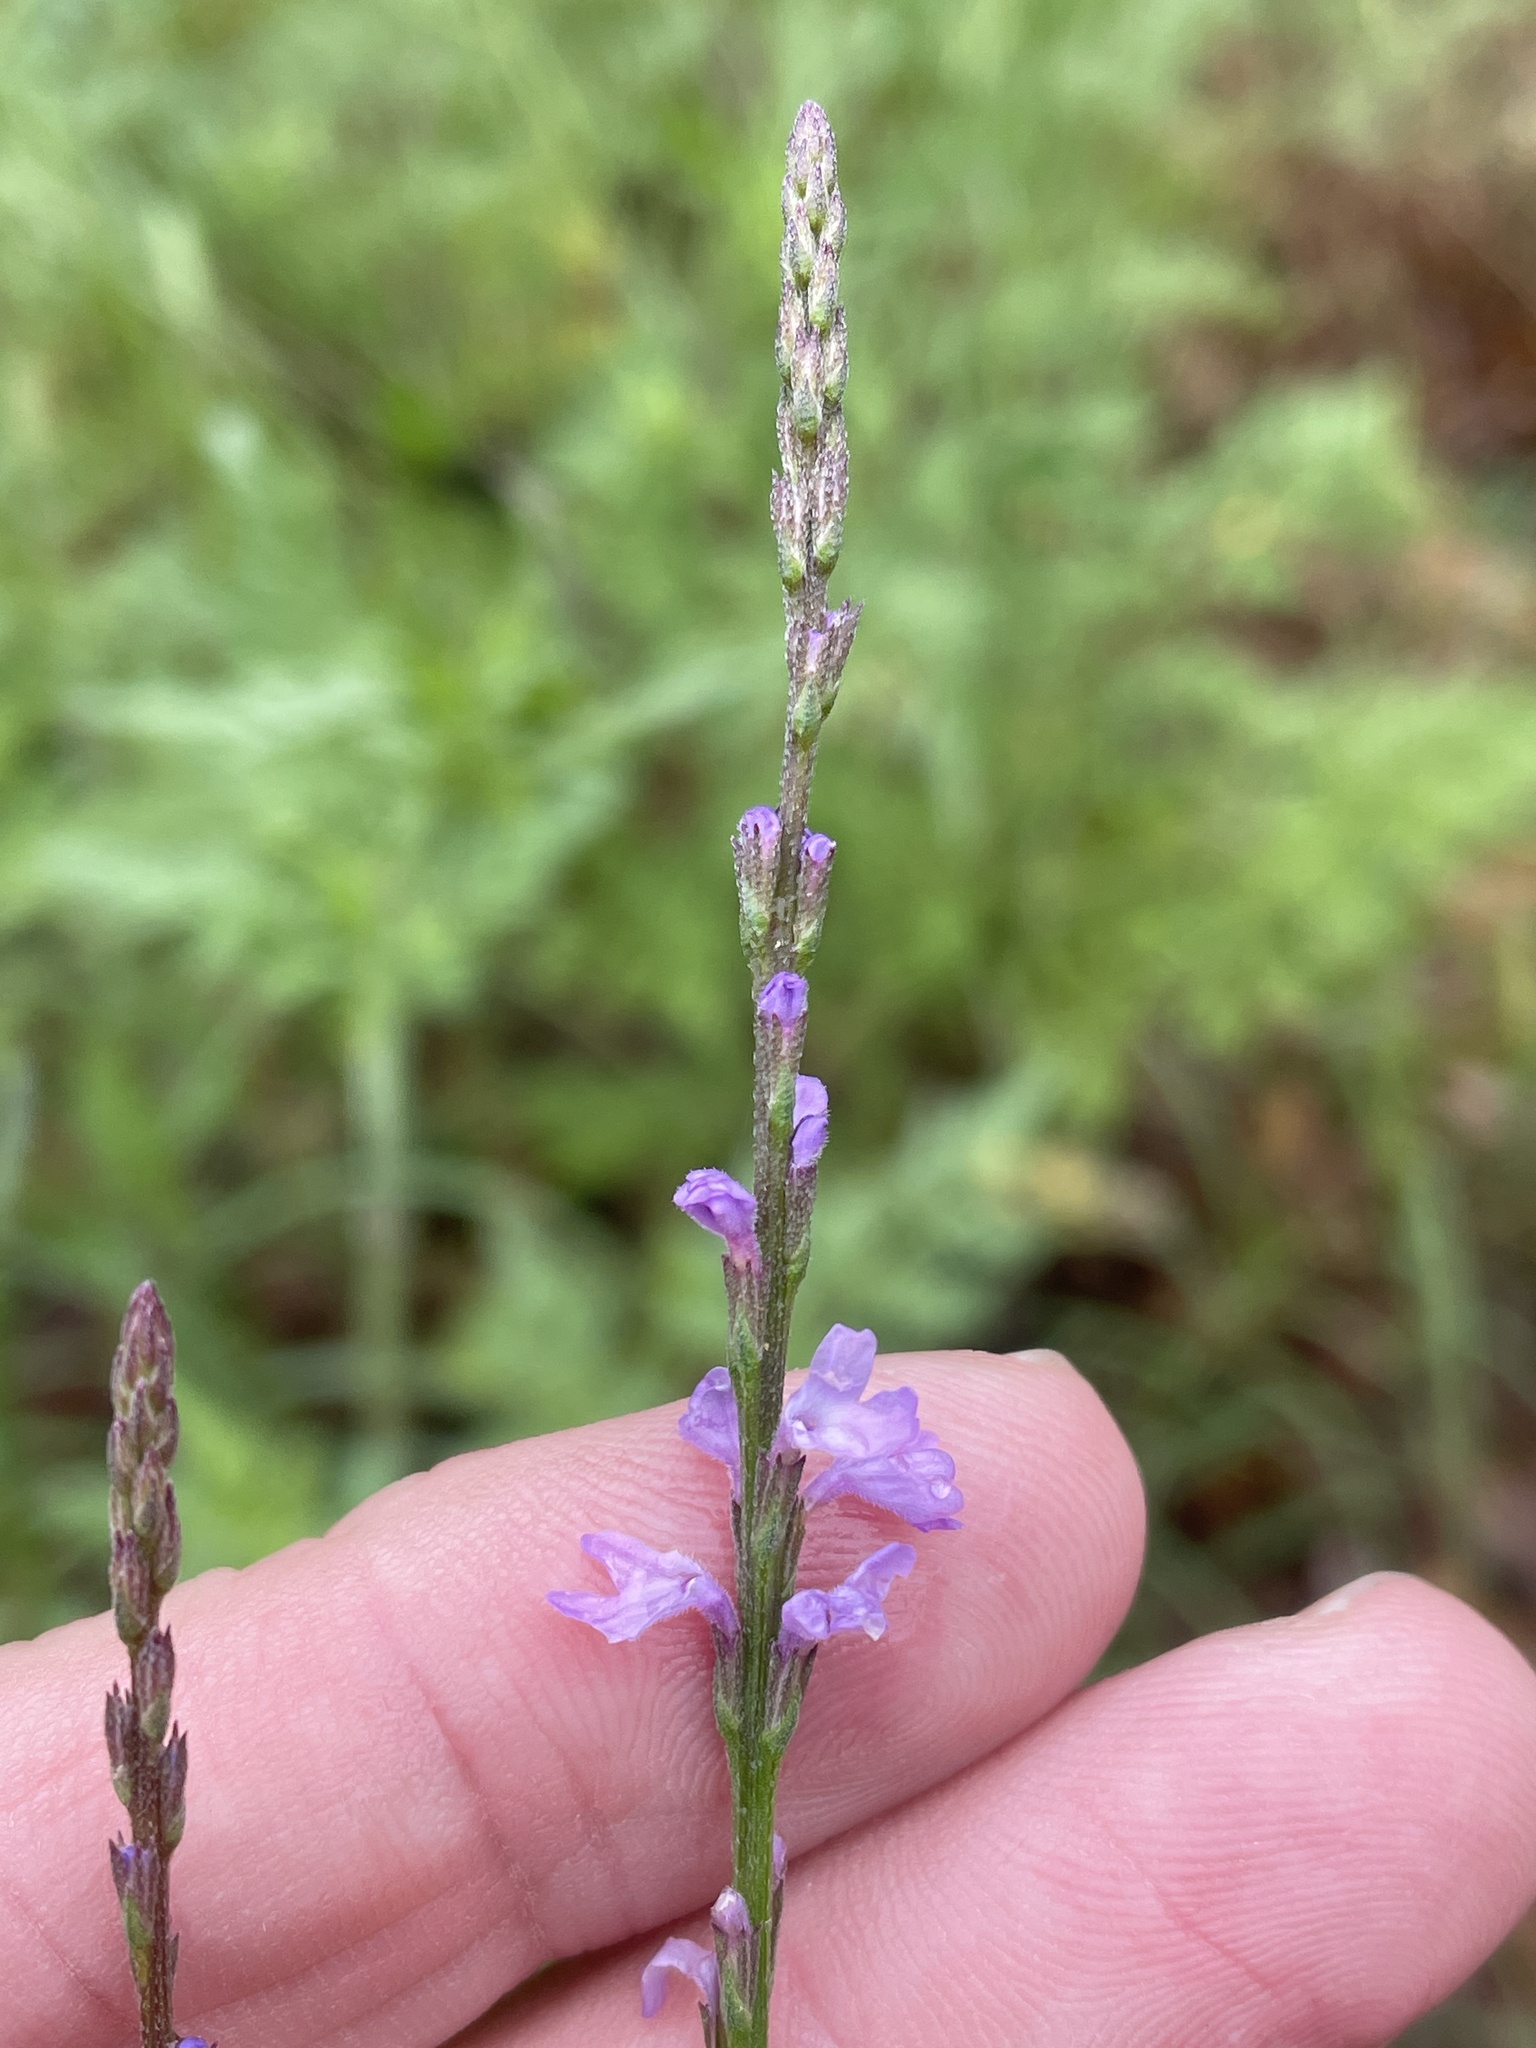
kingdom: Plantae
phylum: Tracheophyta
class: Magnoliopsida
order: Lamiales
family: Verbenaceae
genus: Verbena
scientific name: Verbena halei
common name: Texas vervain
